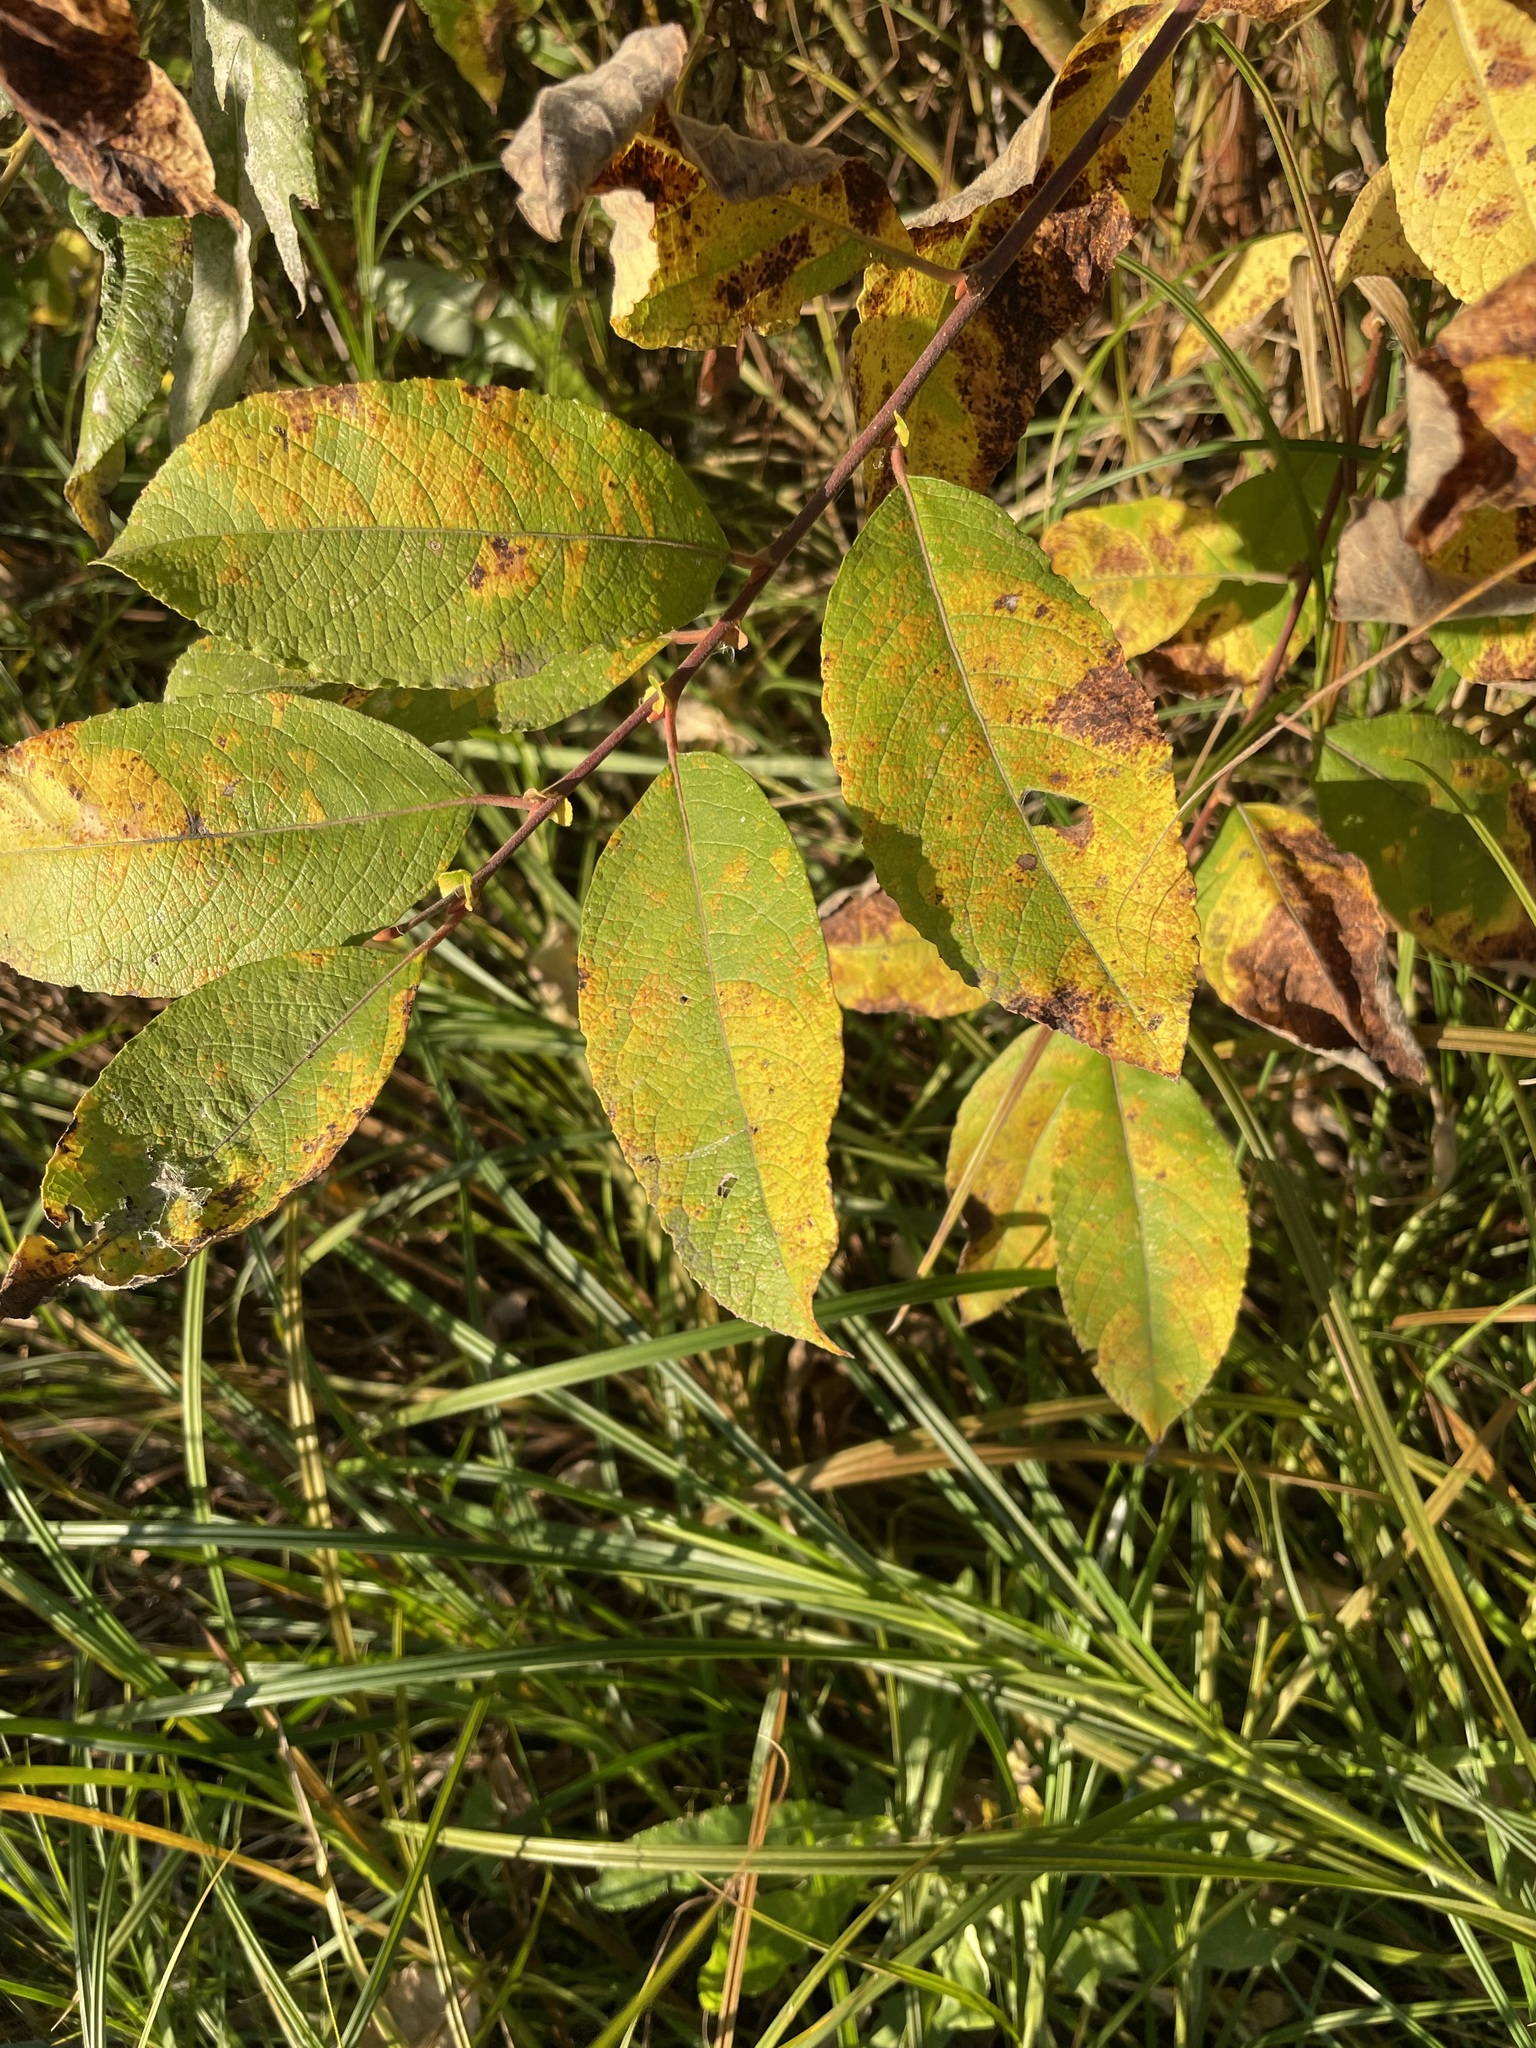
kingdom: Plantae
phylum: Tracheophyta
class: Magnoliopsida
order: Malpighiales
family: Salicaceae
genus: Salix
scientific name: Salix caprea
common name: Goat willow
